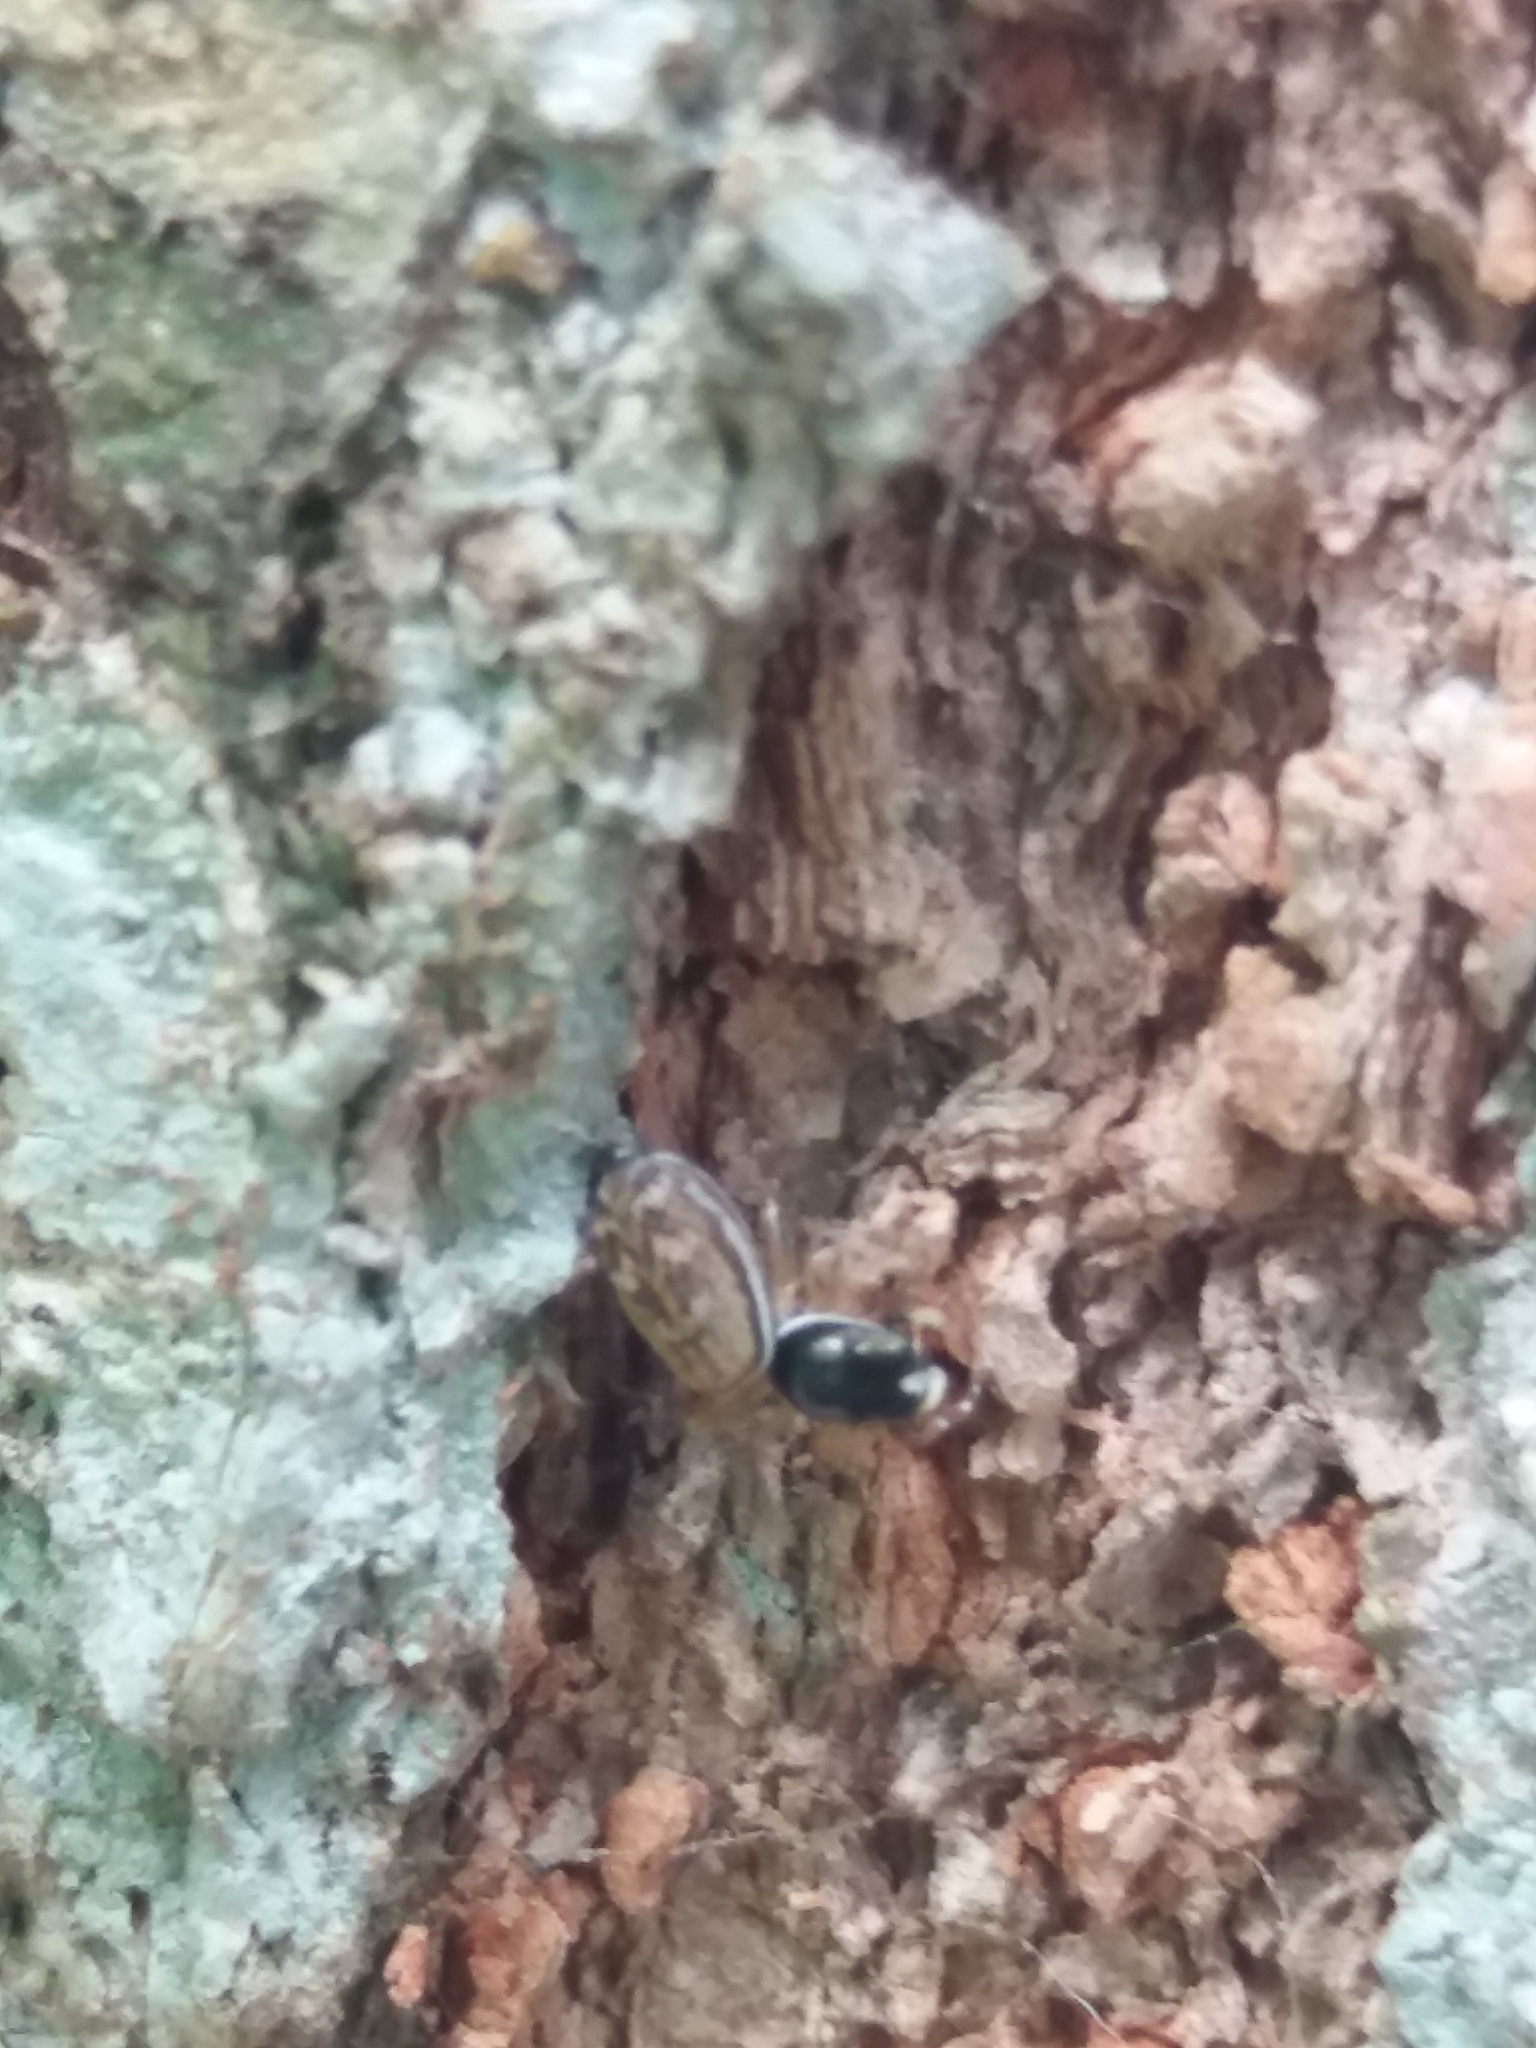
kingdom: Animalia
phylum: Arthropoda
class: Arachnida
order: Araneae
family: Salticidae
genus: Icius
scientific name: Icius vikrambatrai
